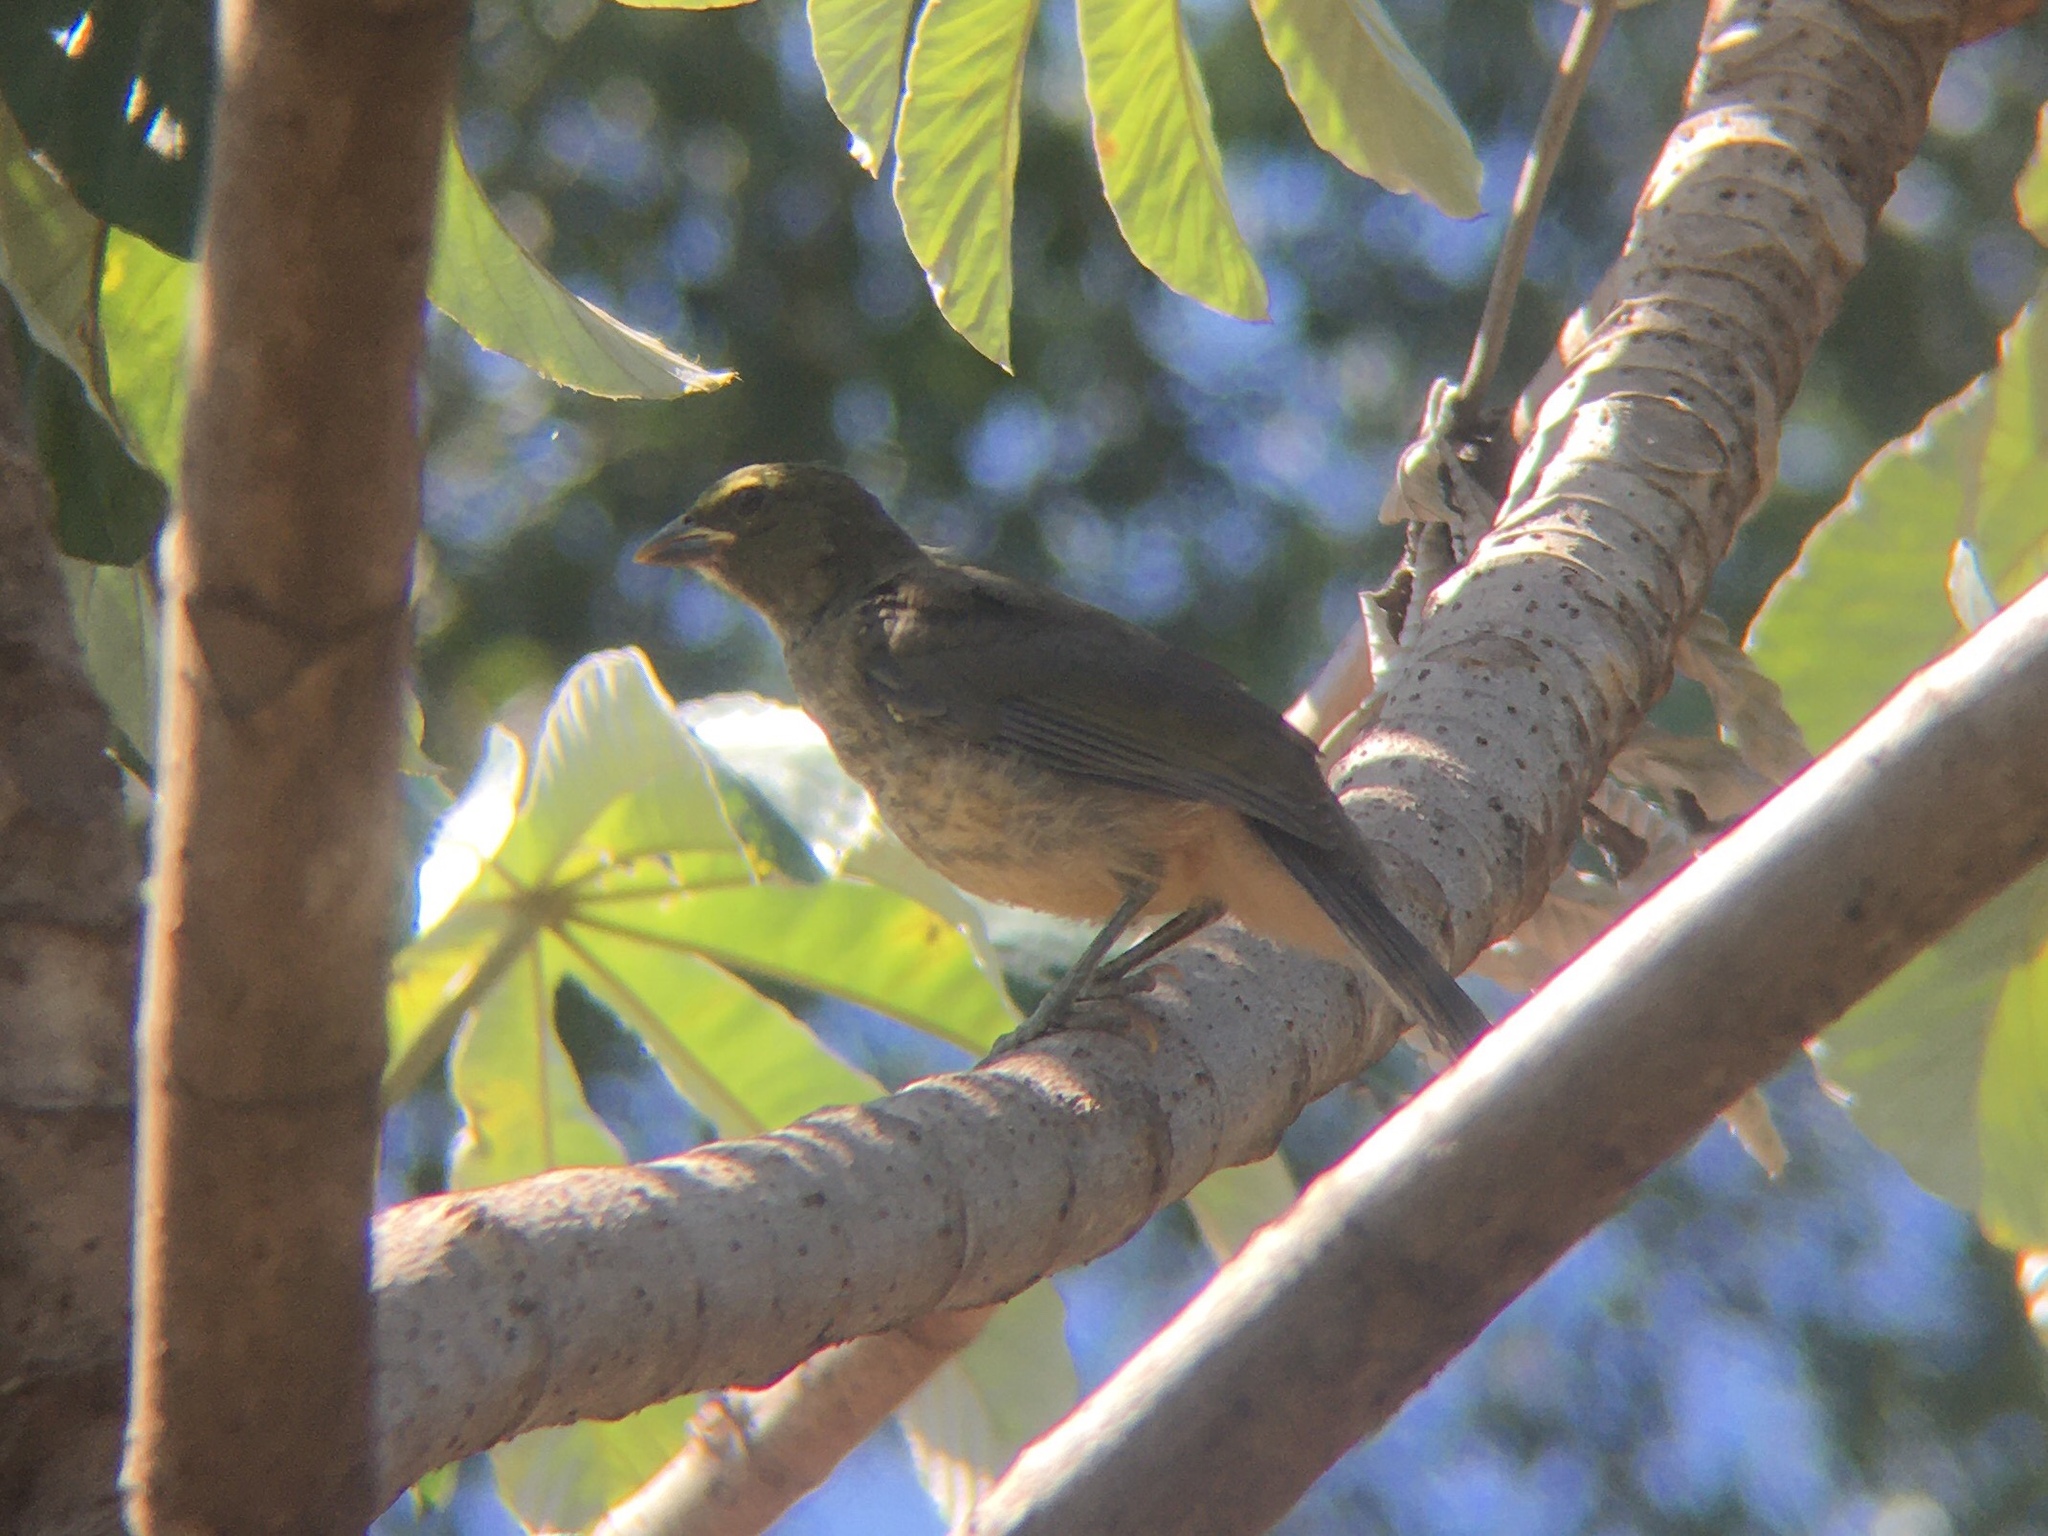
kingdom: Animalia
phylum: Chordata
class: Aves
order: Passeriformes
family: Thraupidae
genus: Saltator
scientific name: Saltator coerulescens
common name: Grayish saltator
